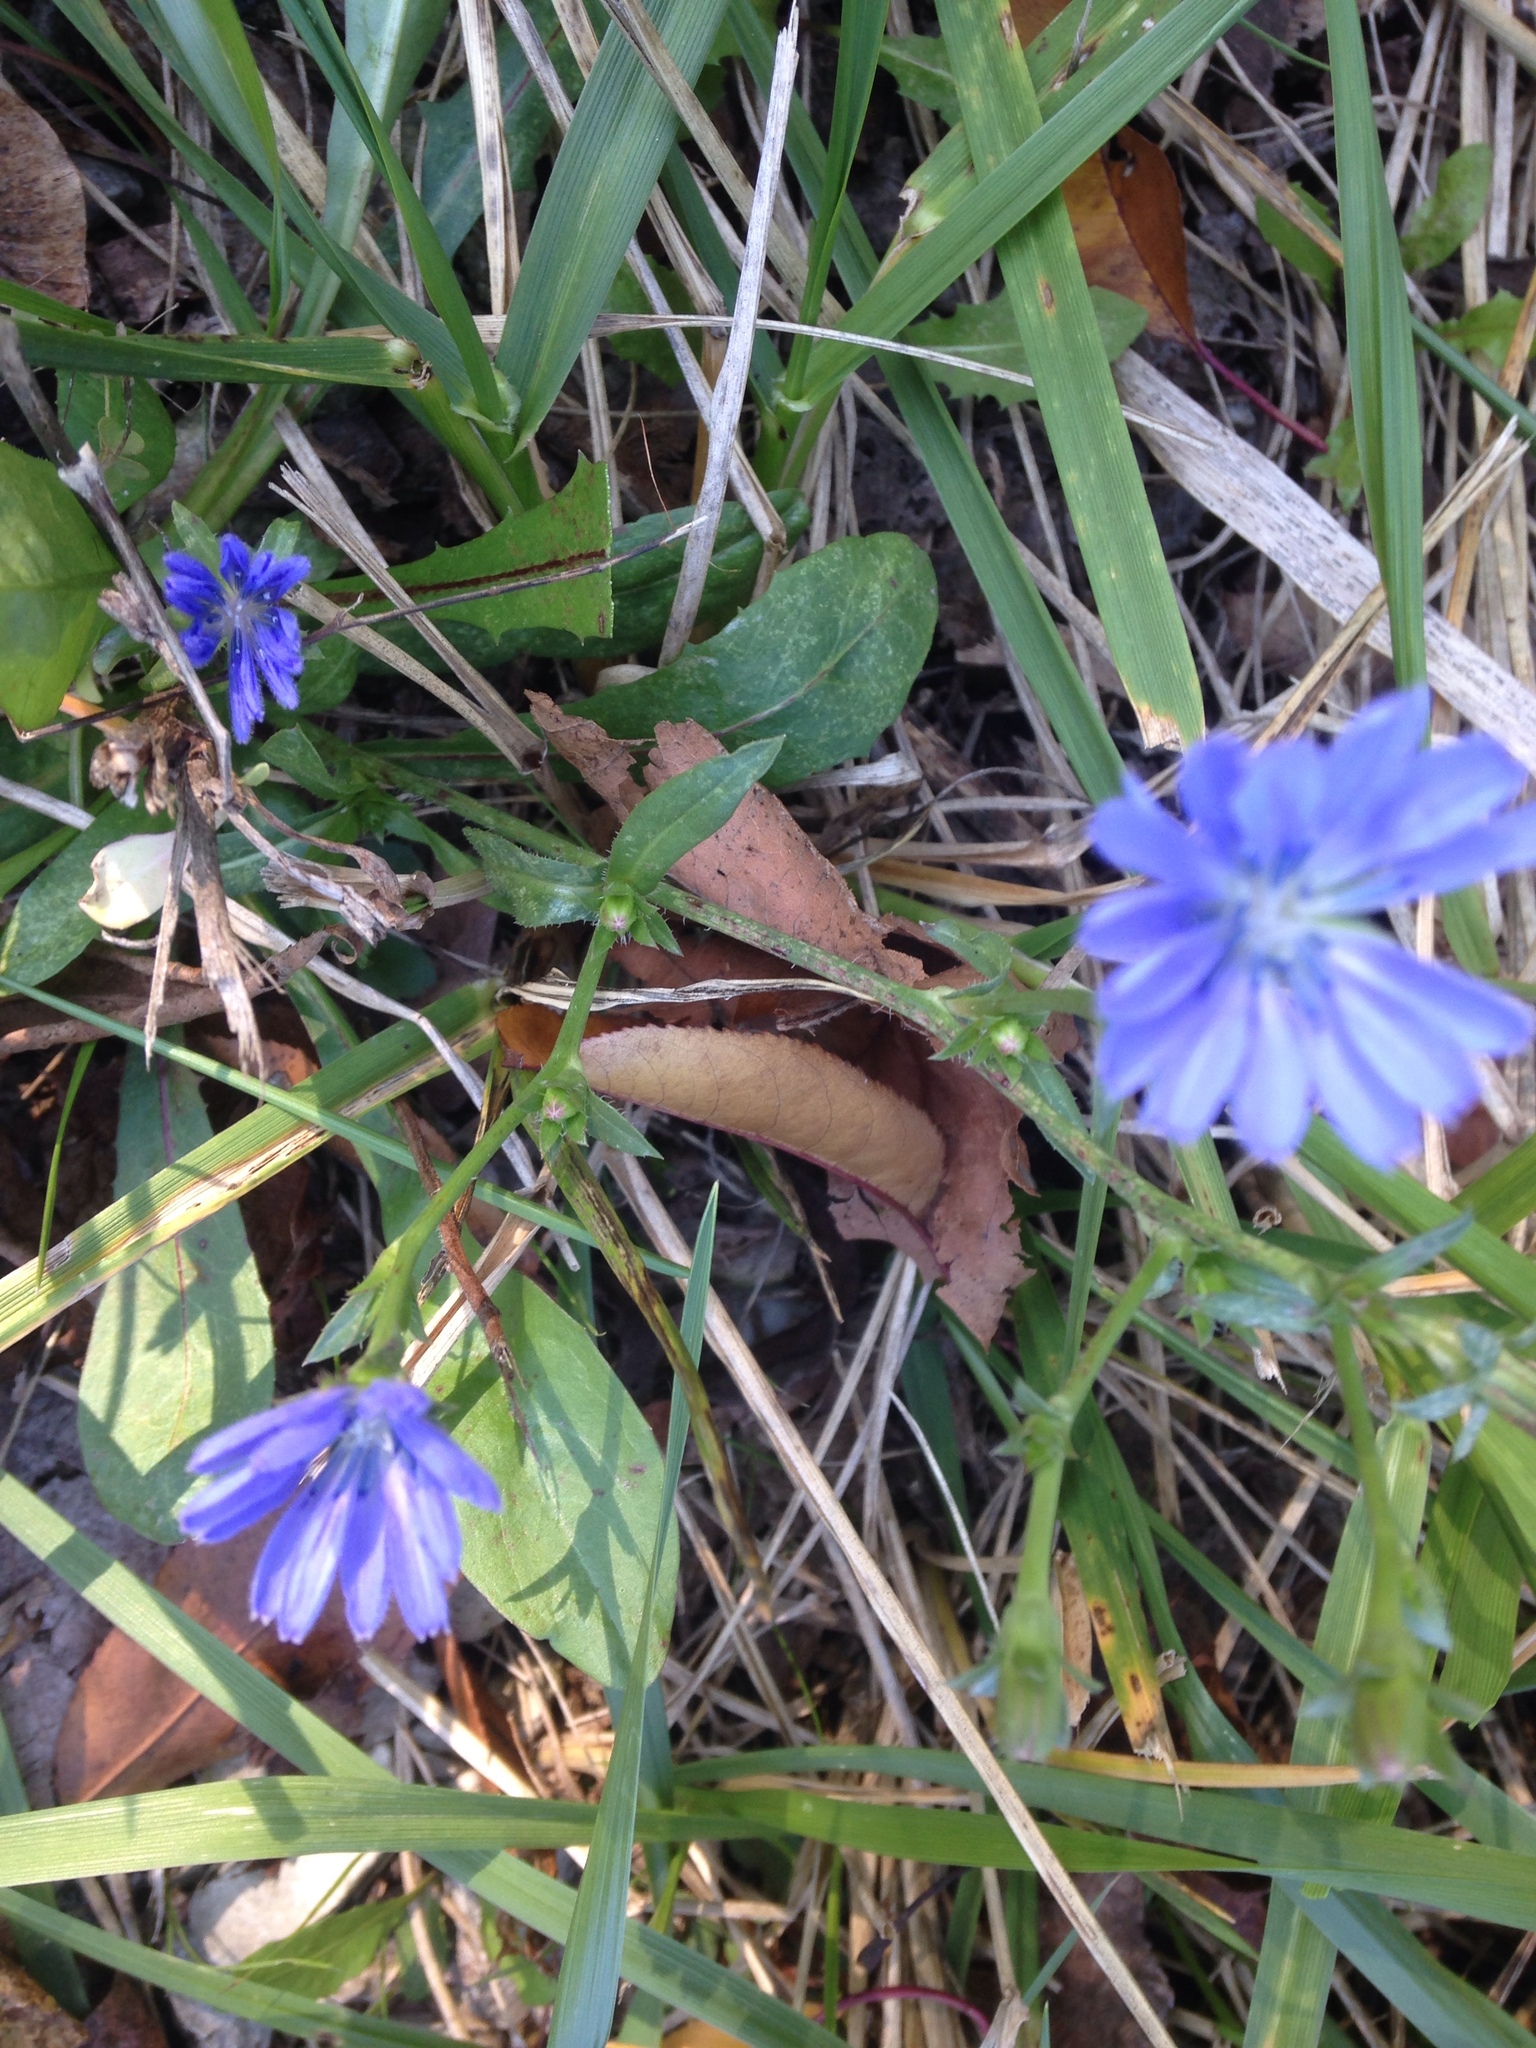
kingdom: Plantae
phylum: Tracheophyta
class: Magnoliopsida
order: Asterales
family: Asteraceae
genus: Cichorium
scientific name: Cichorium intybus
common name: Chicory
